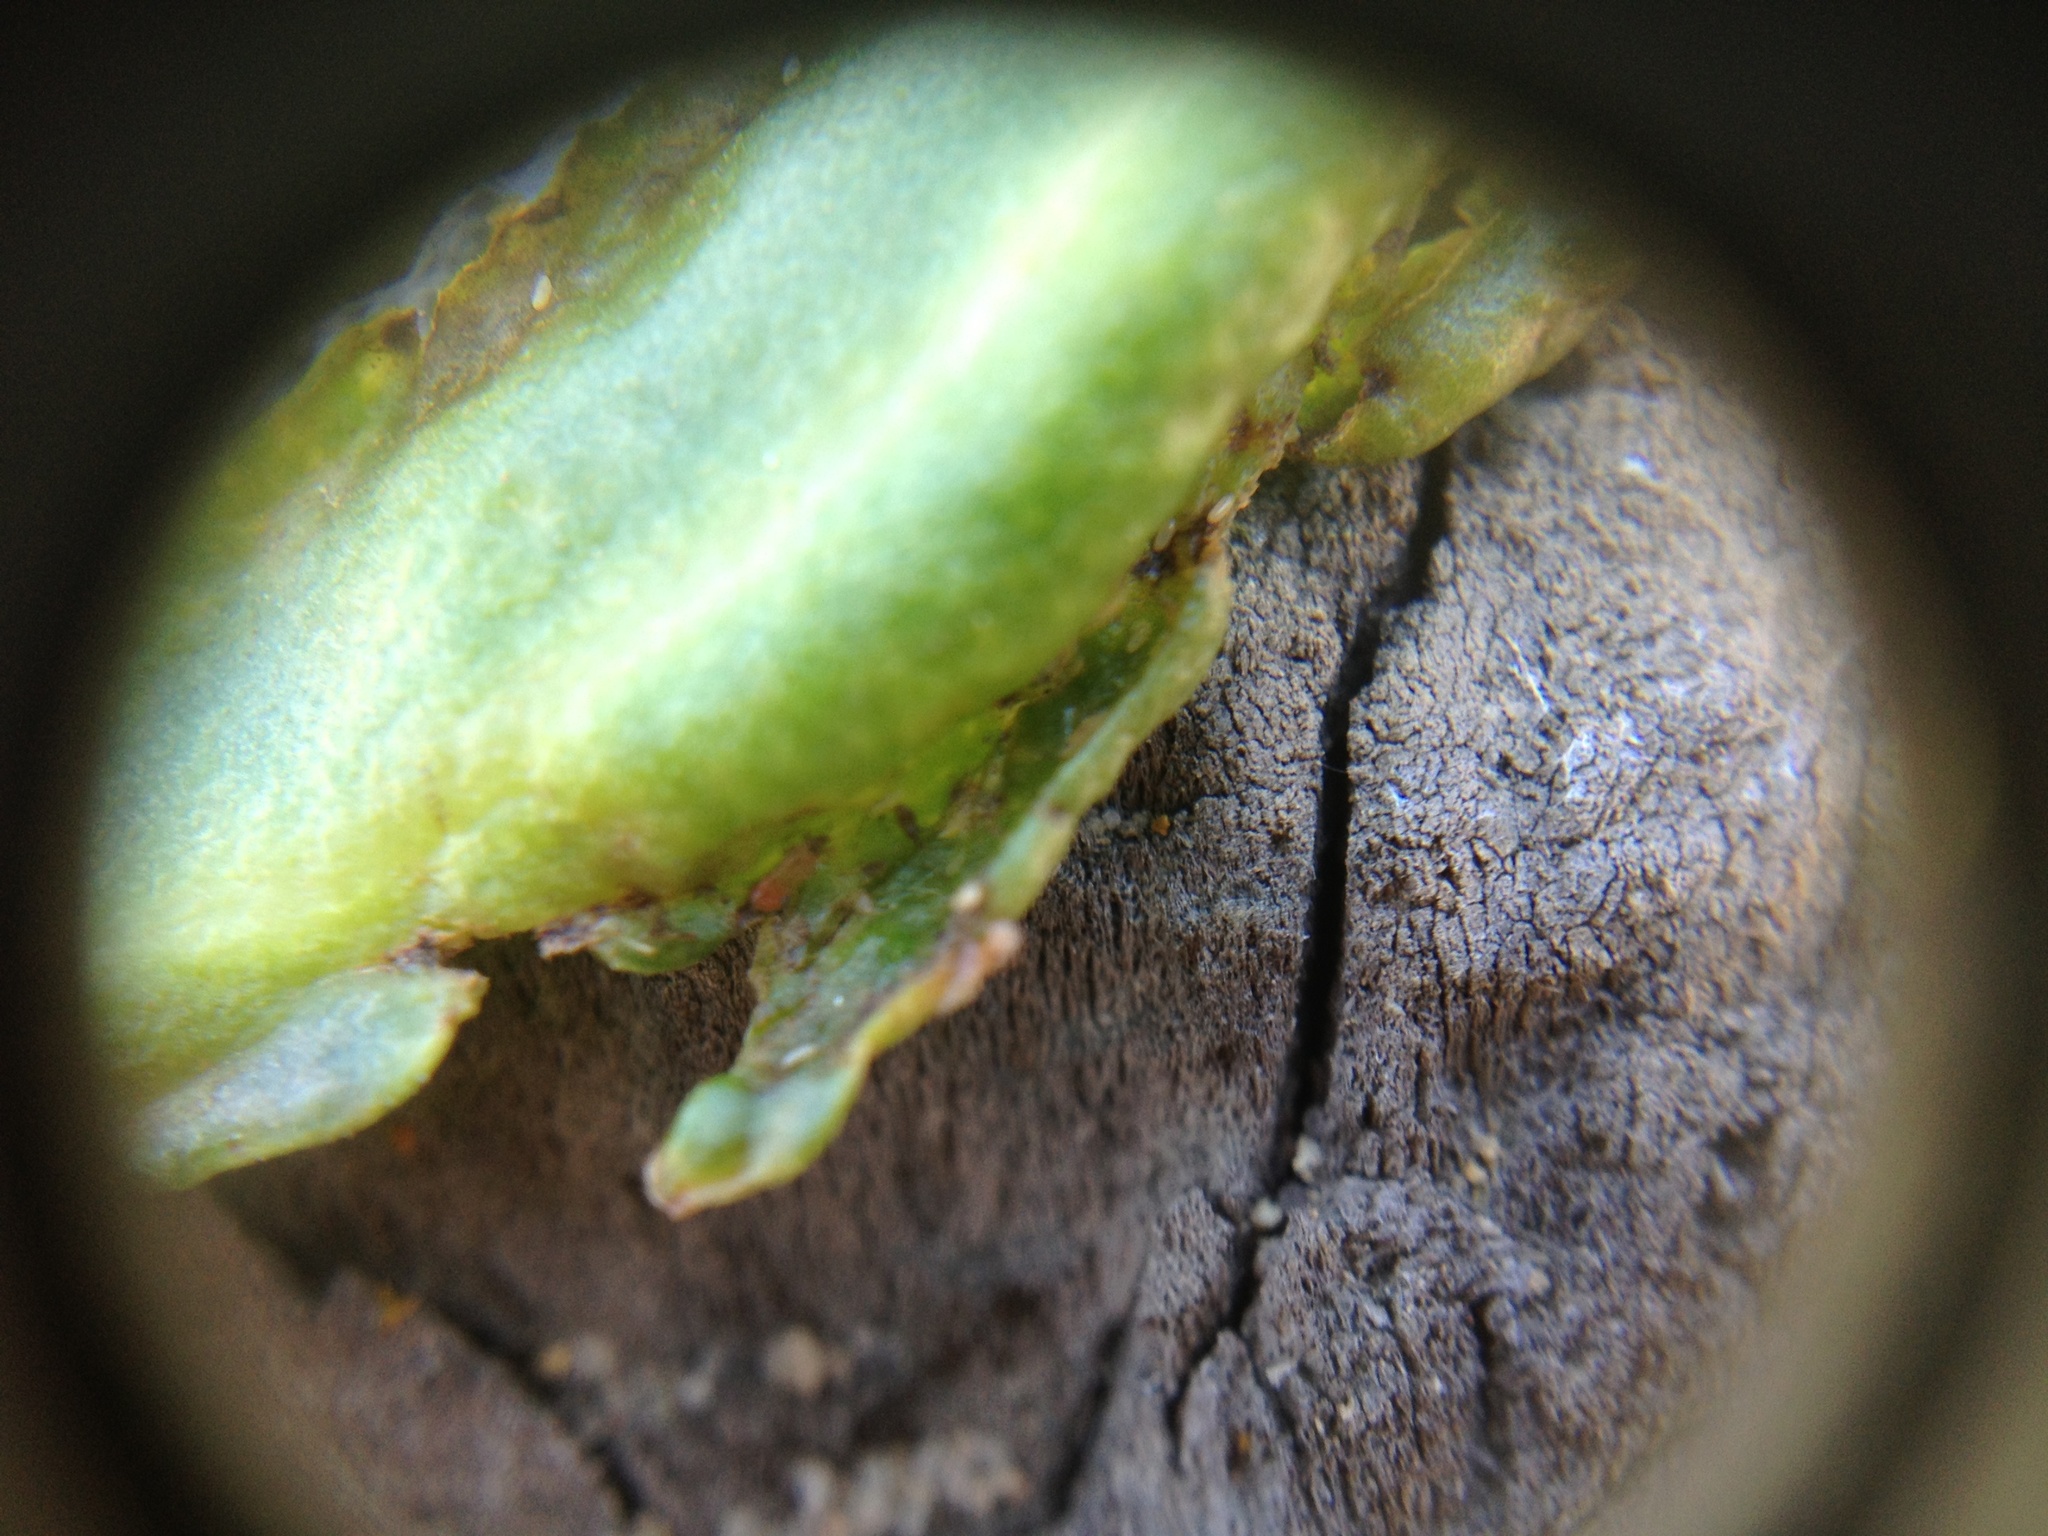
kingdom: Animalia
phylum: Arthropoda
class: Insecta
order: Thysanoptera
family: Phlaeothripidae
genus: Klambothrips
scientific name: Klambothrips myopori
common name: Myoporum thrips
